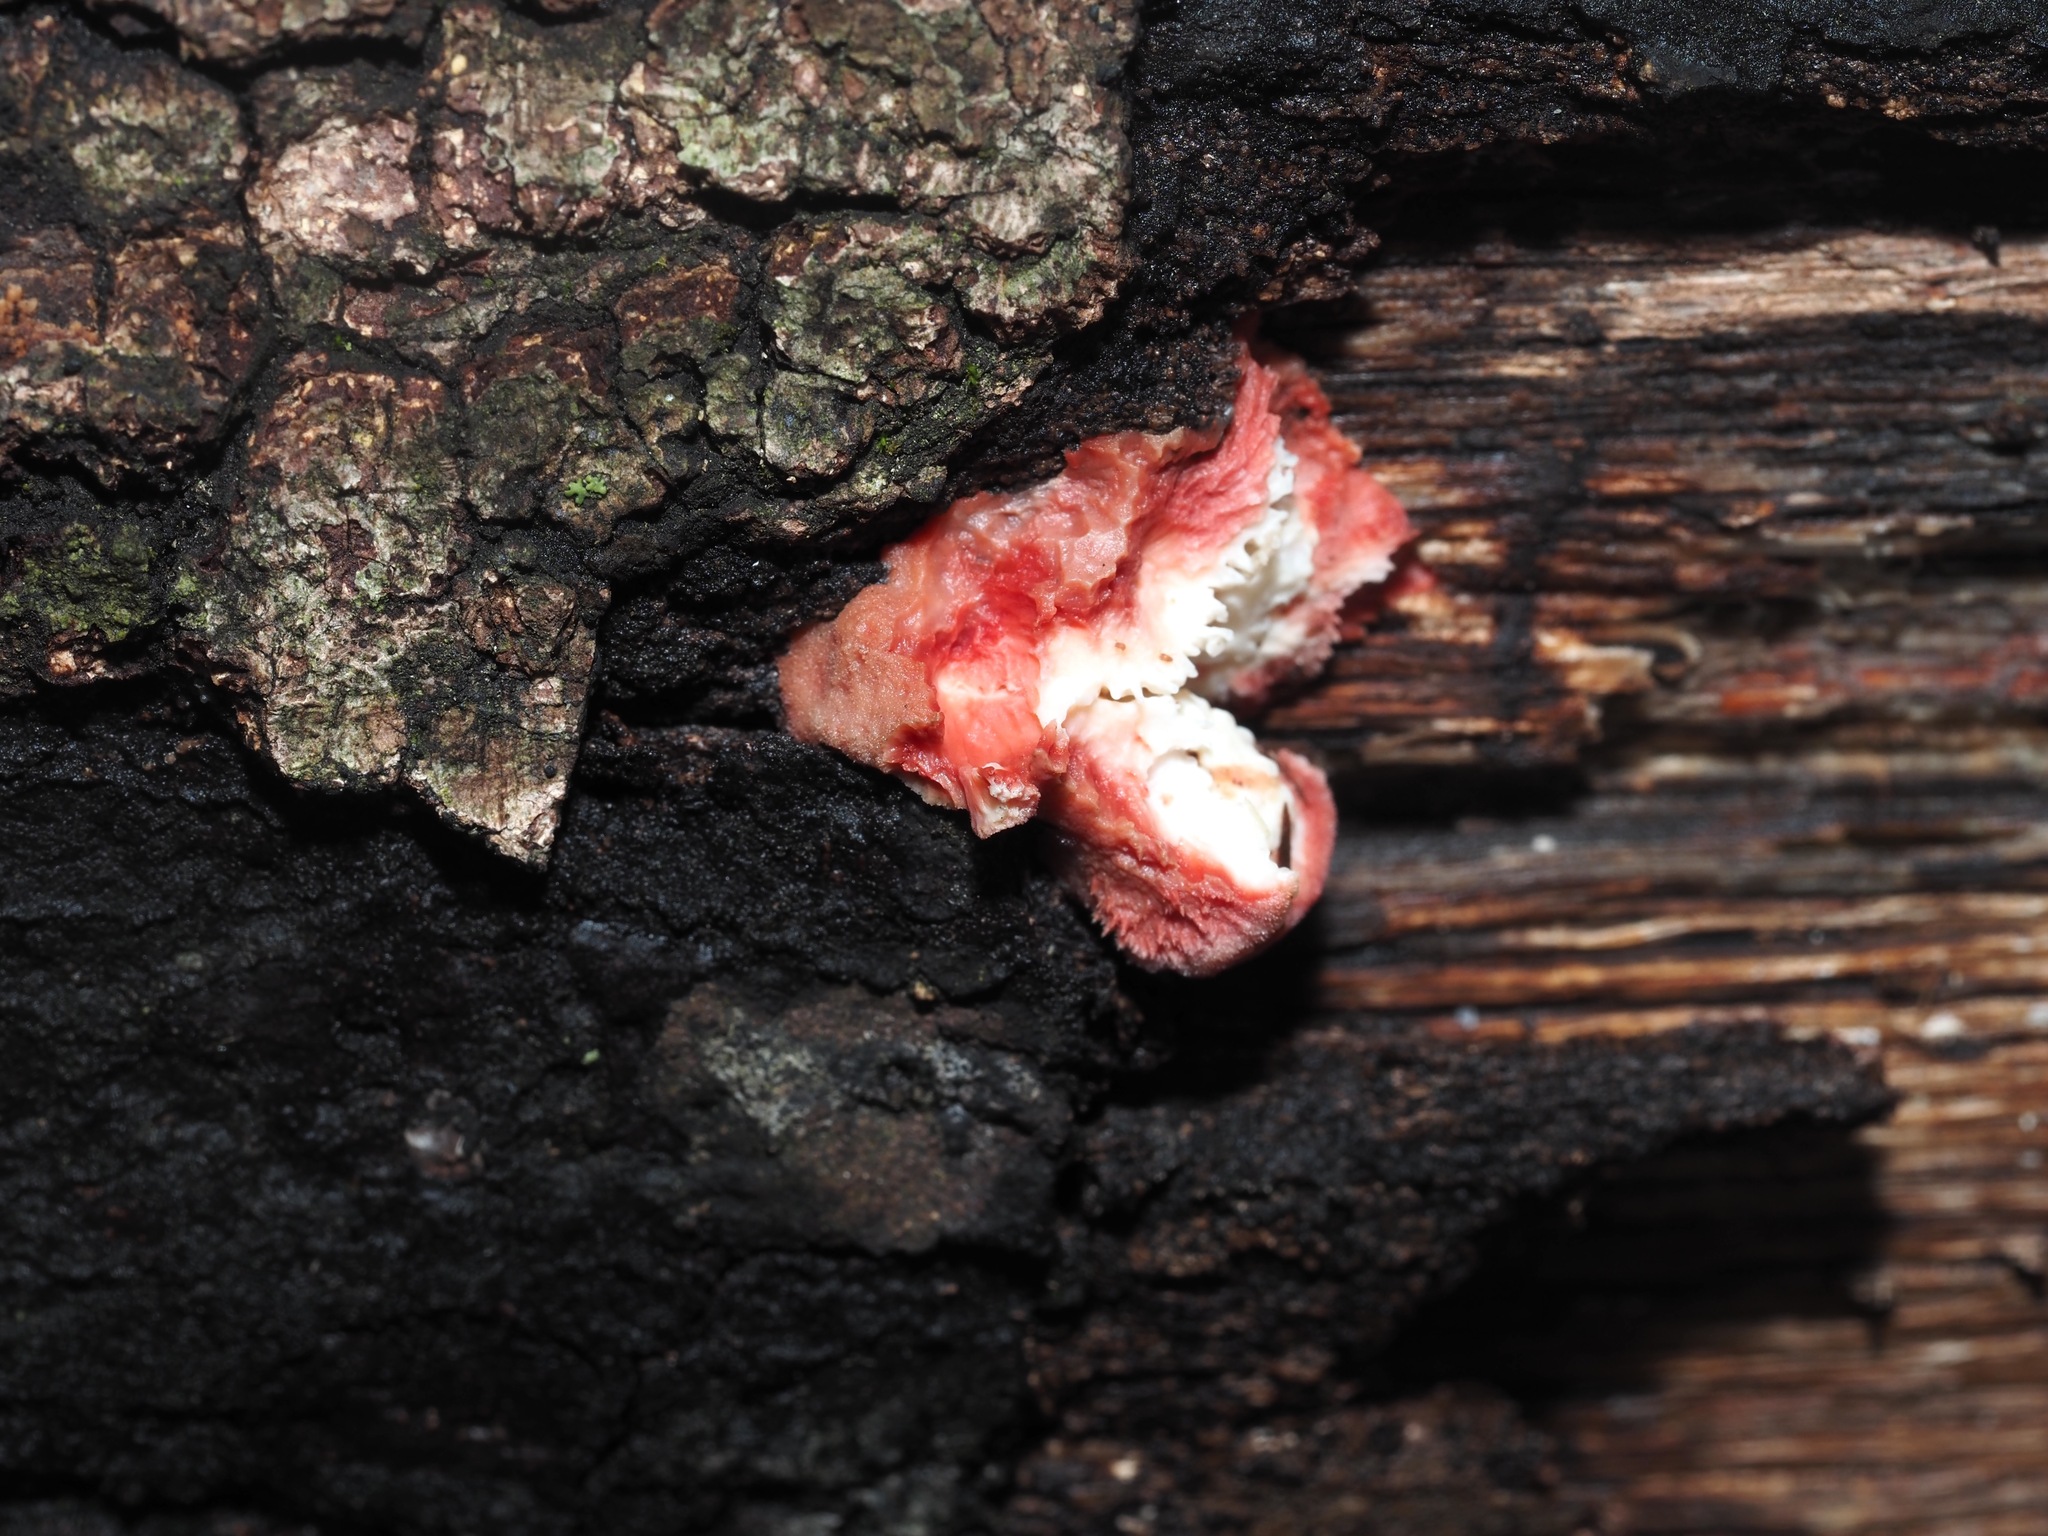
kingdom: Fungi
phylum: Basidiomycota
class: Agaricomycetes
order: Polyporales
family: Irpicaceae
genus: Byssomerulius
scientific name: Byssomerulius incarnatus
